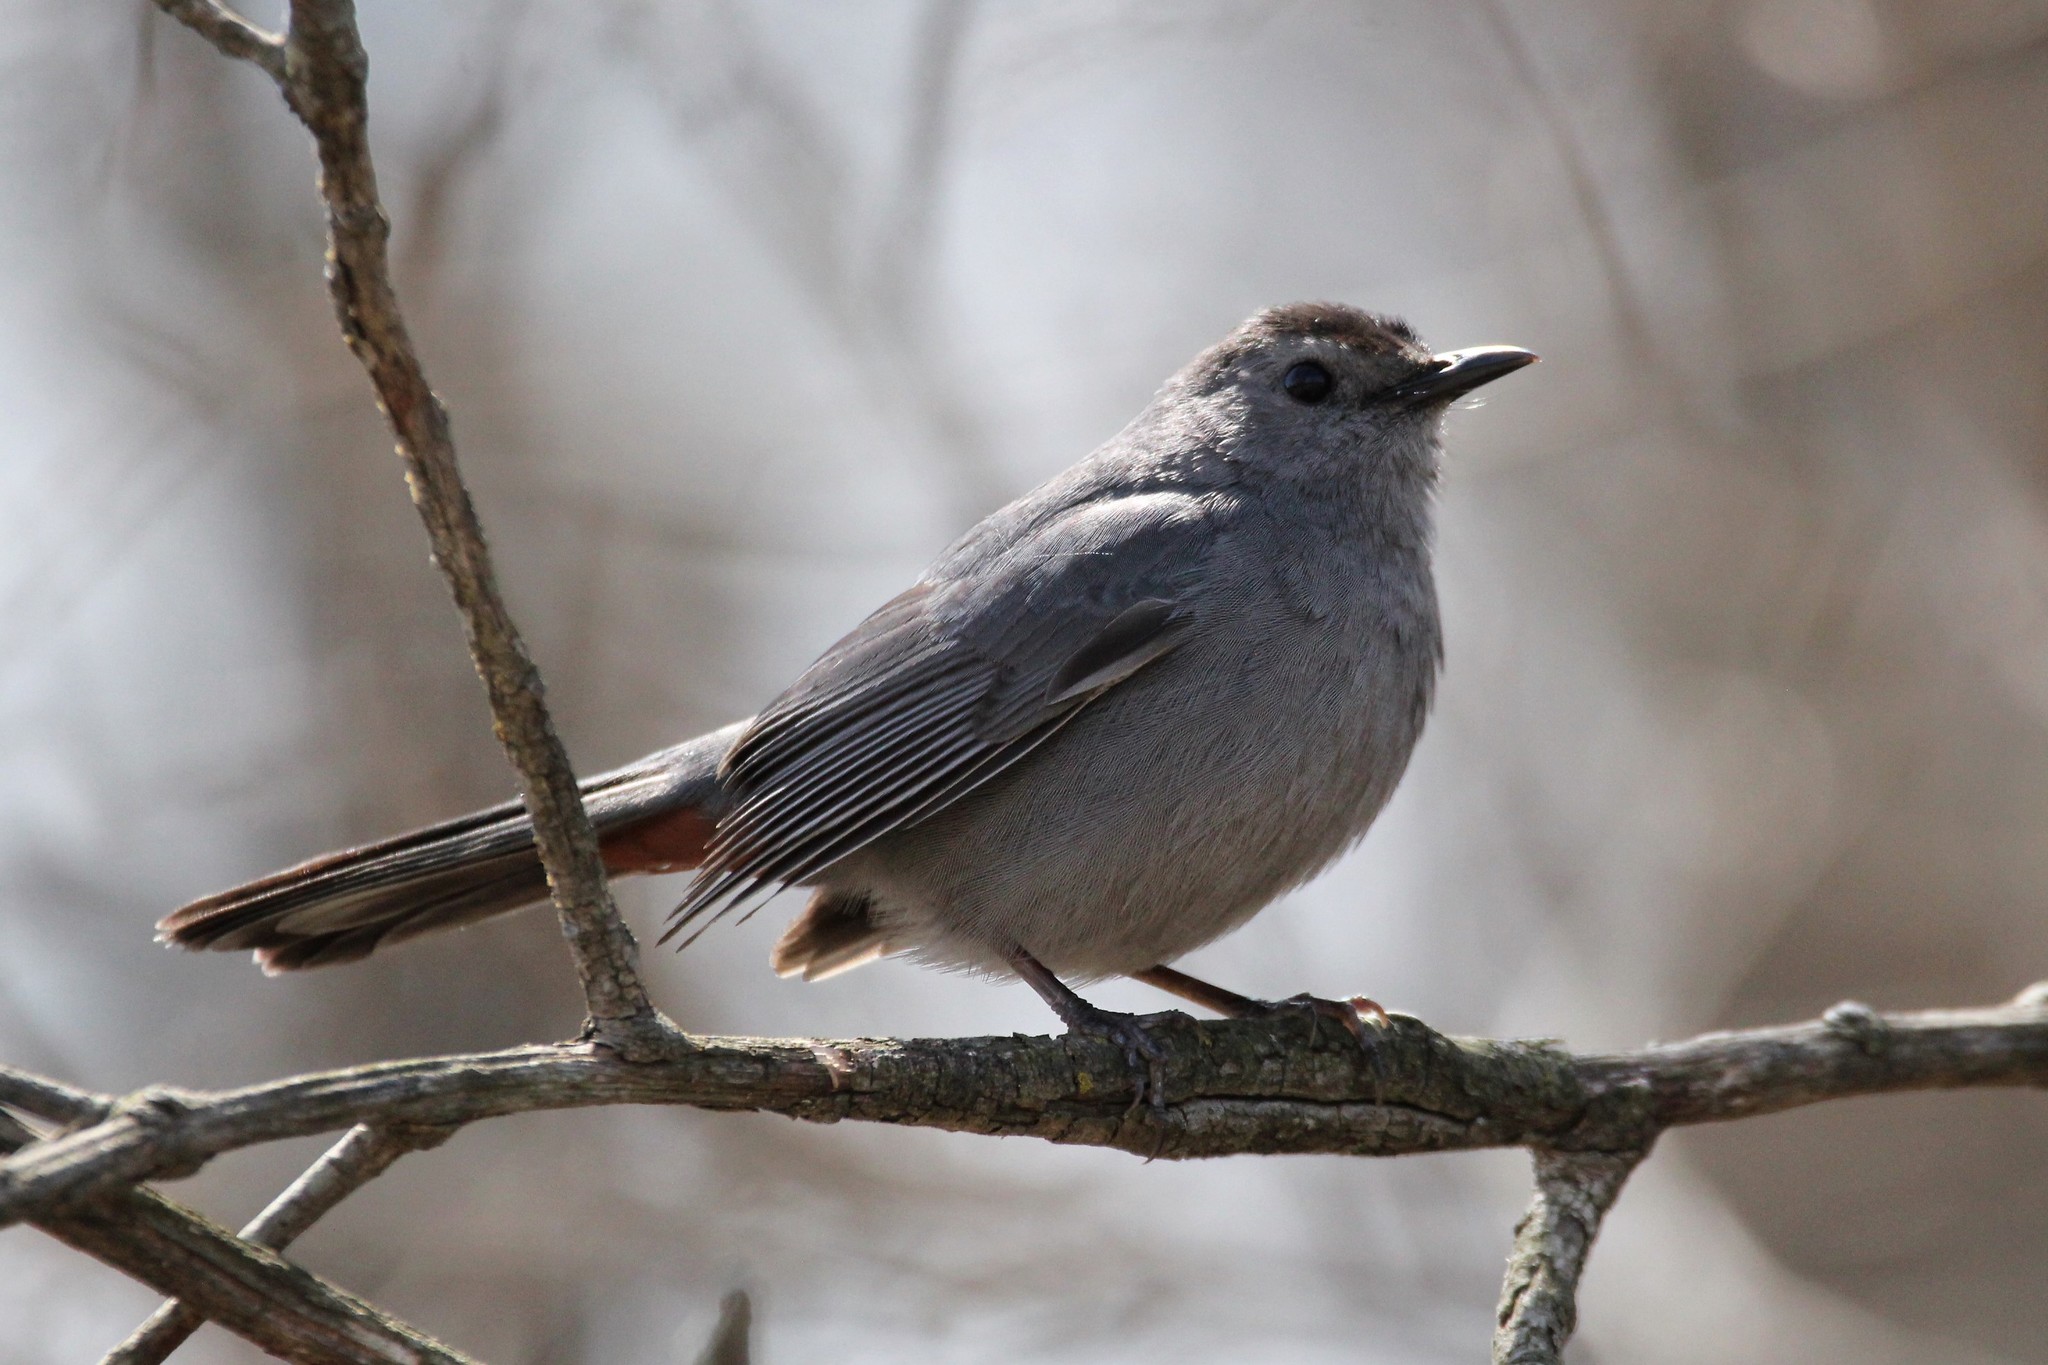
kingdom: Animalia
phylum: Chordata
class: Aves
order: Passeriformes
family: Mimidae
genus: Dumetella
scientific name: Dumetella carolinensis
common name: Gray catbird
